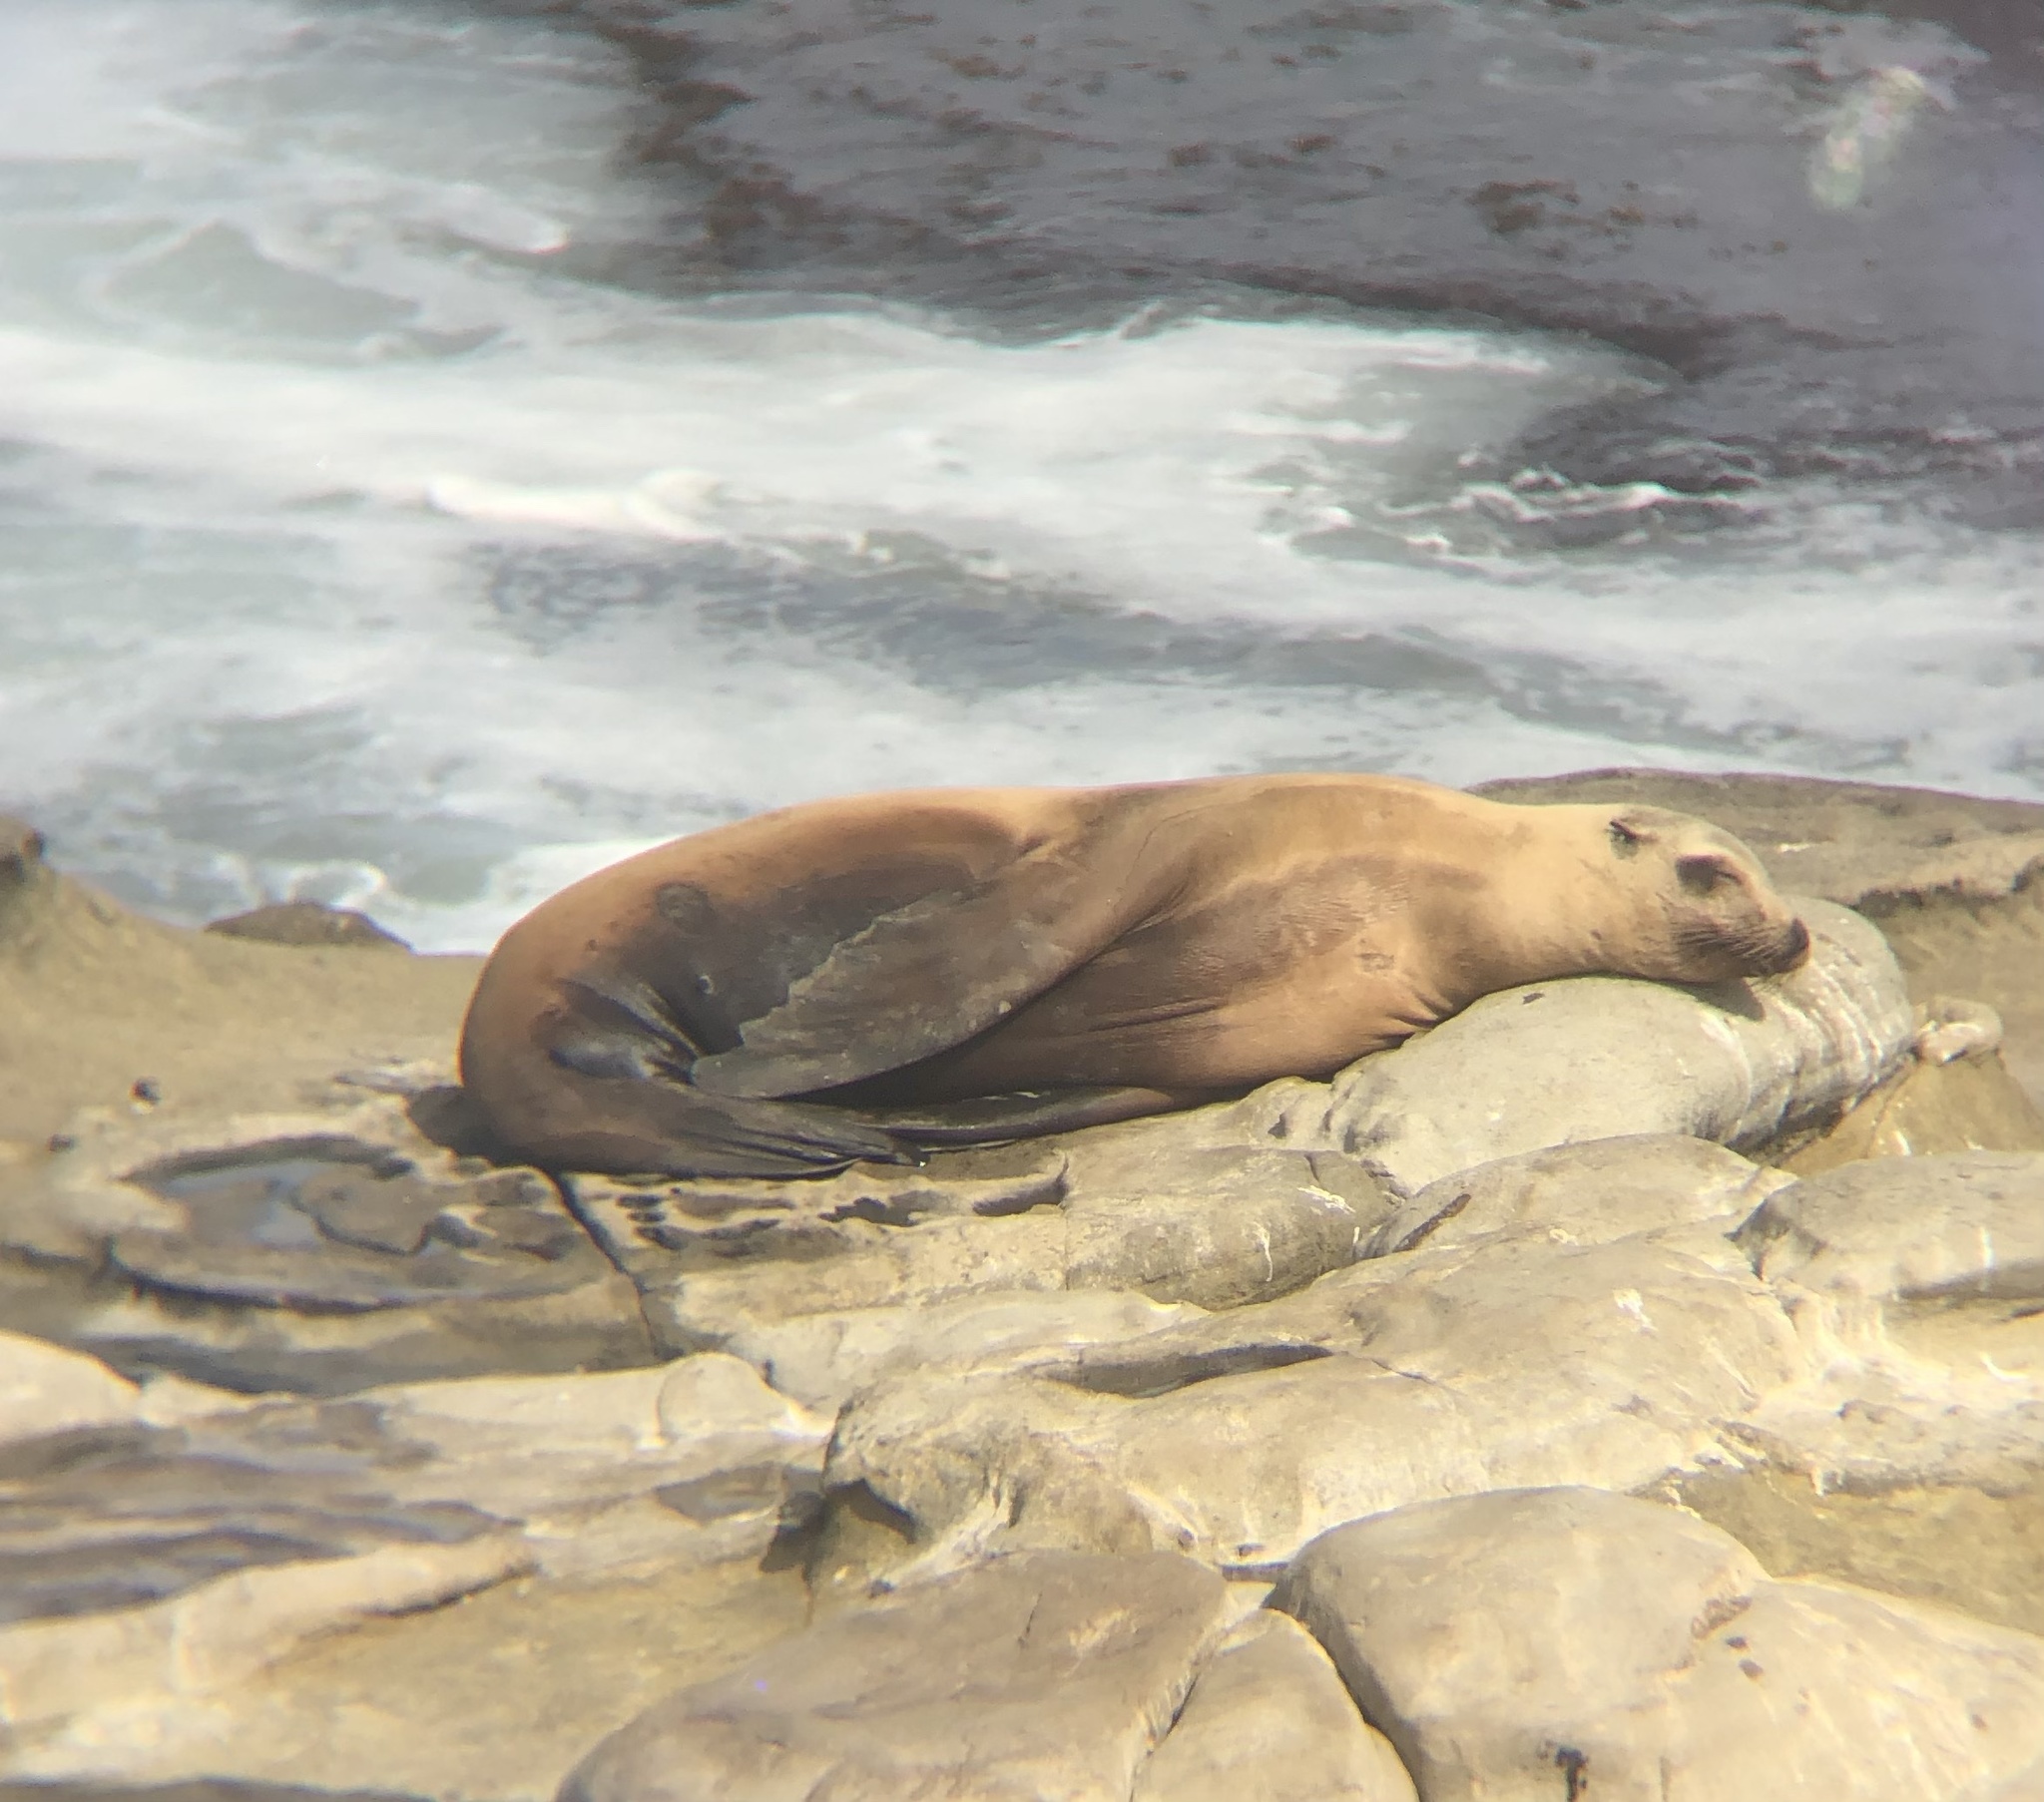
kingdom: Animalia
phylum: Chordata
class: Mammalia
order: Carnivora
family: Otariidae
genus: Zalophus
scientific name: Zalophus californianus
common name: California sea lion
